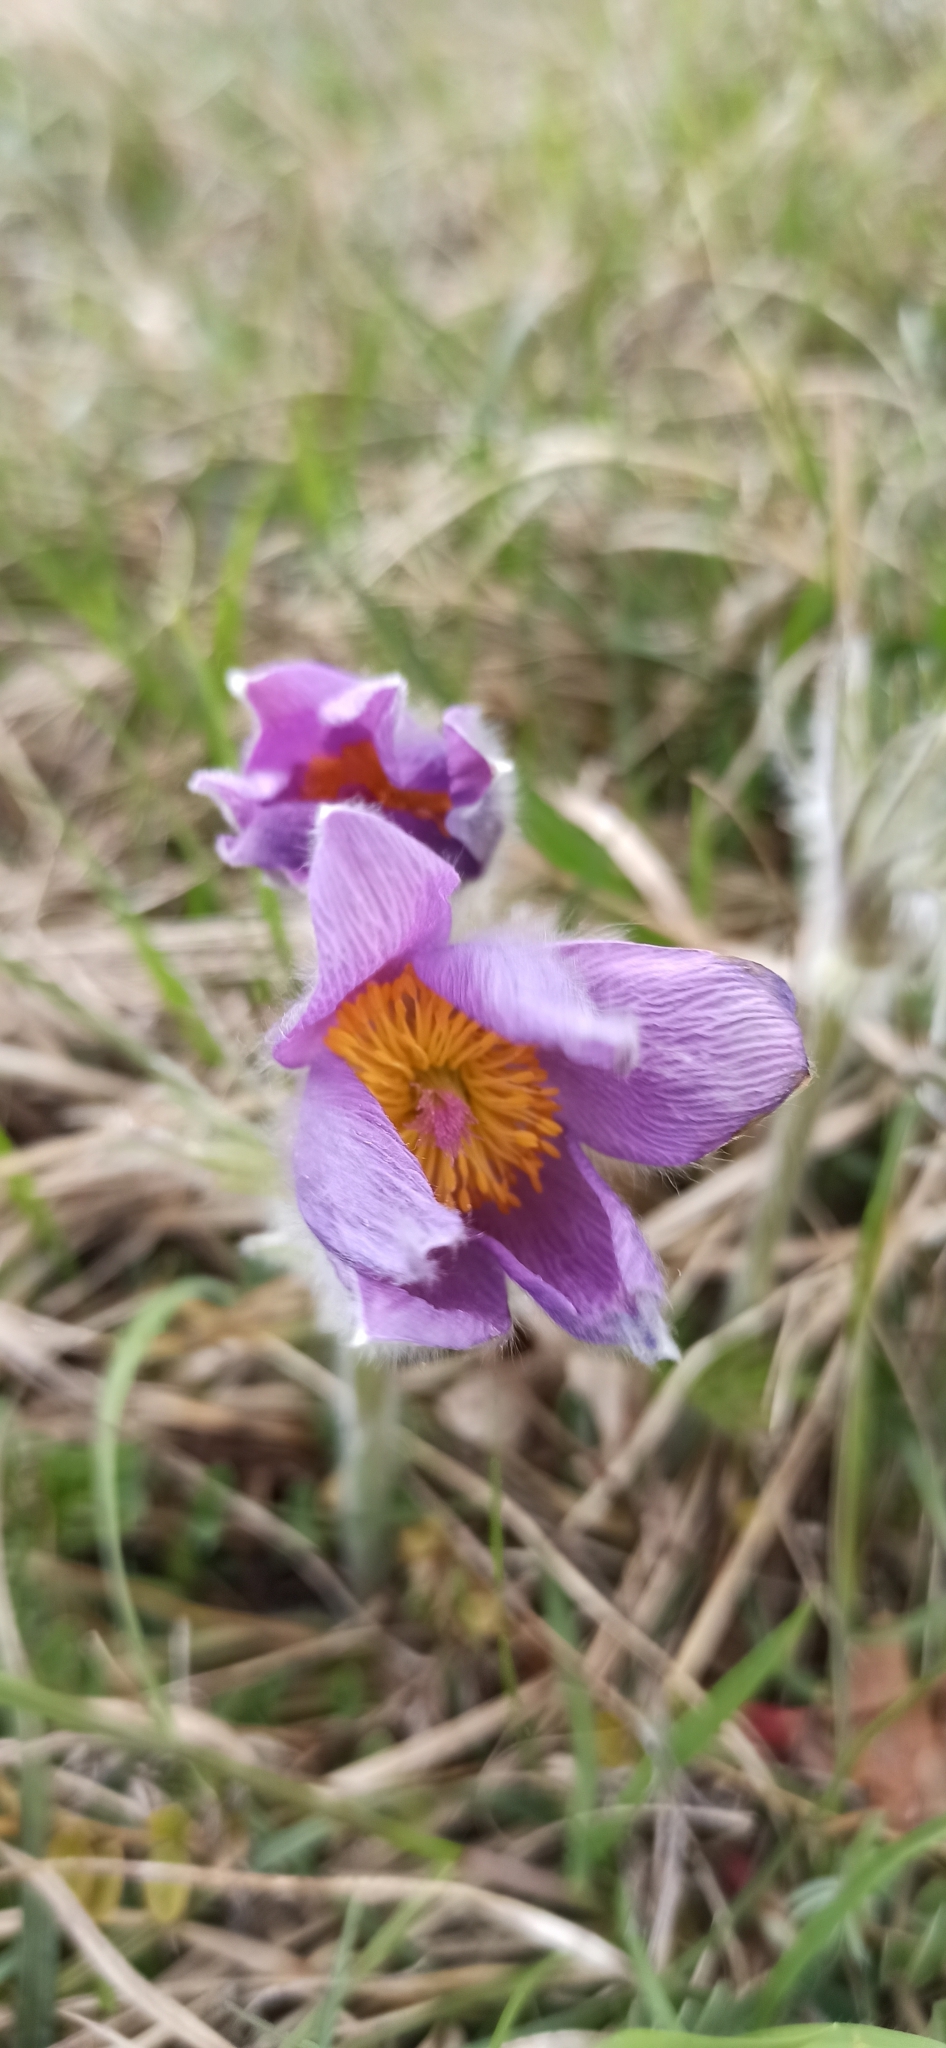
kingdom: Plantae
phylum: Tracheophyta
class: Magnoliopsida
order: Ranunculales
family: Ranunculaceae
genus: Pulsatilla
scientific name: Pulsatilla vulgaris
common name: Pasqueflower
